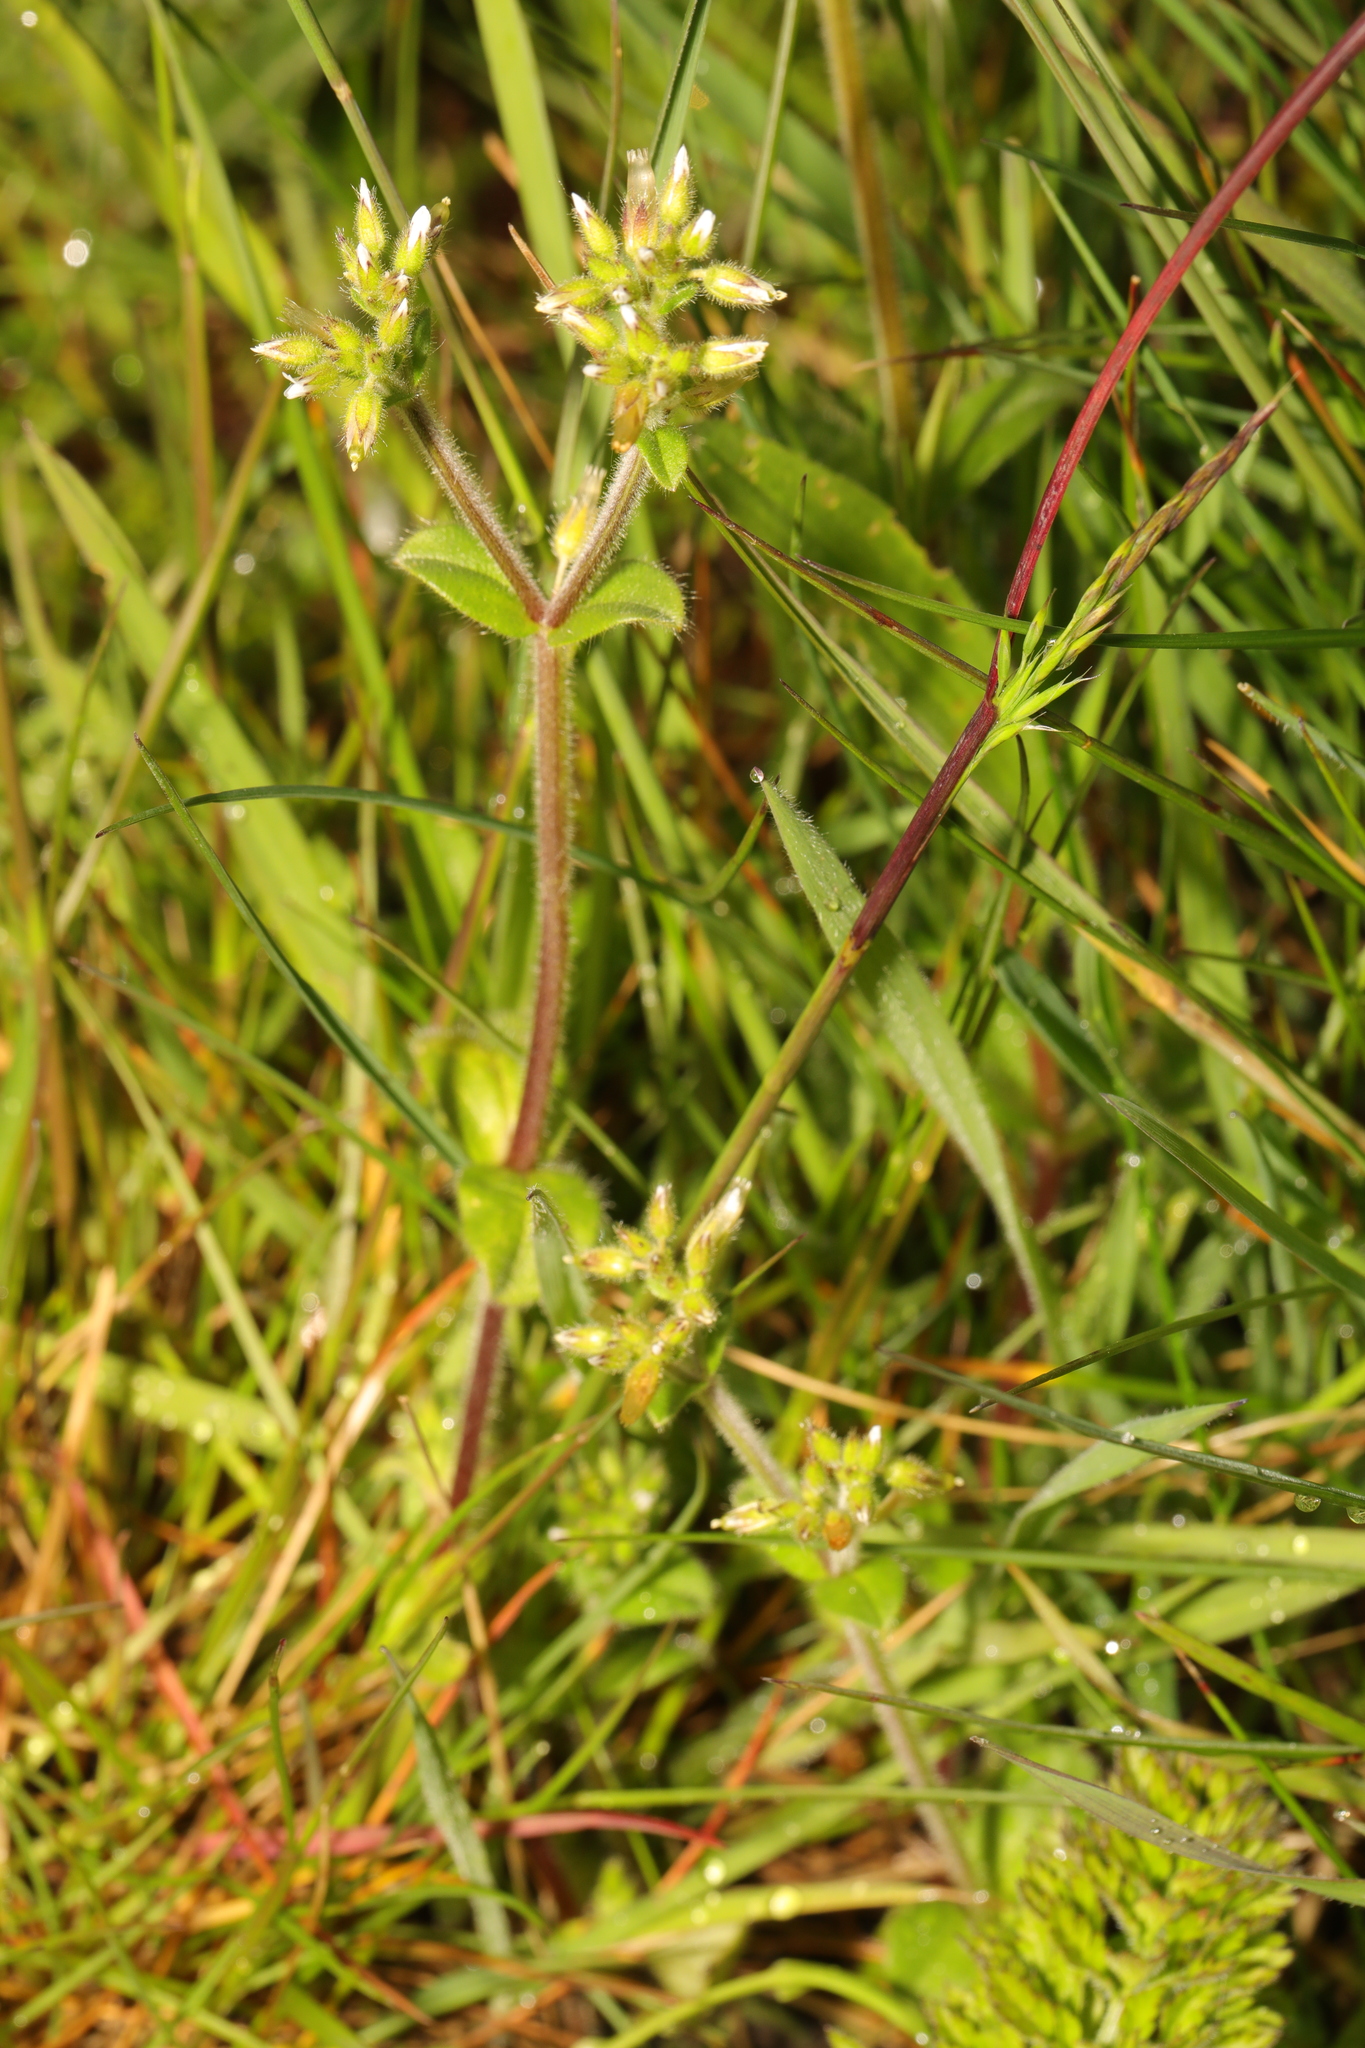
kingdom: Plantae
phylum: Tracheophyta
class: Magnoliopsida
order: Caryophyllales
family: Caryophyllaceae
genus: Cerastium
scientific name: Cerastium glomeratum
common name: Sticky chickweed
